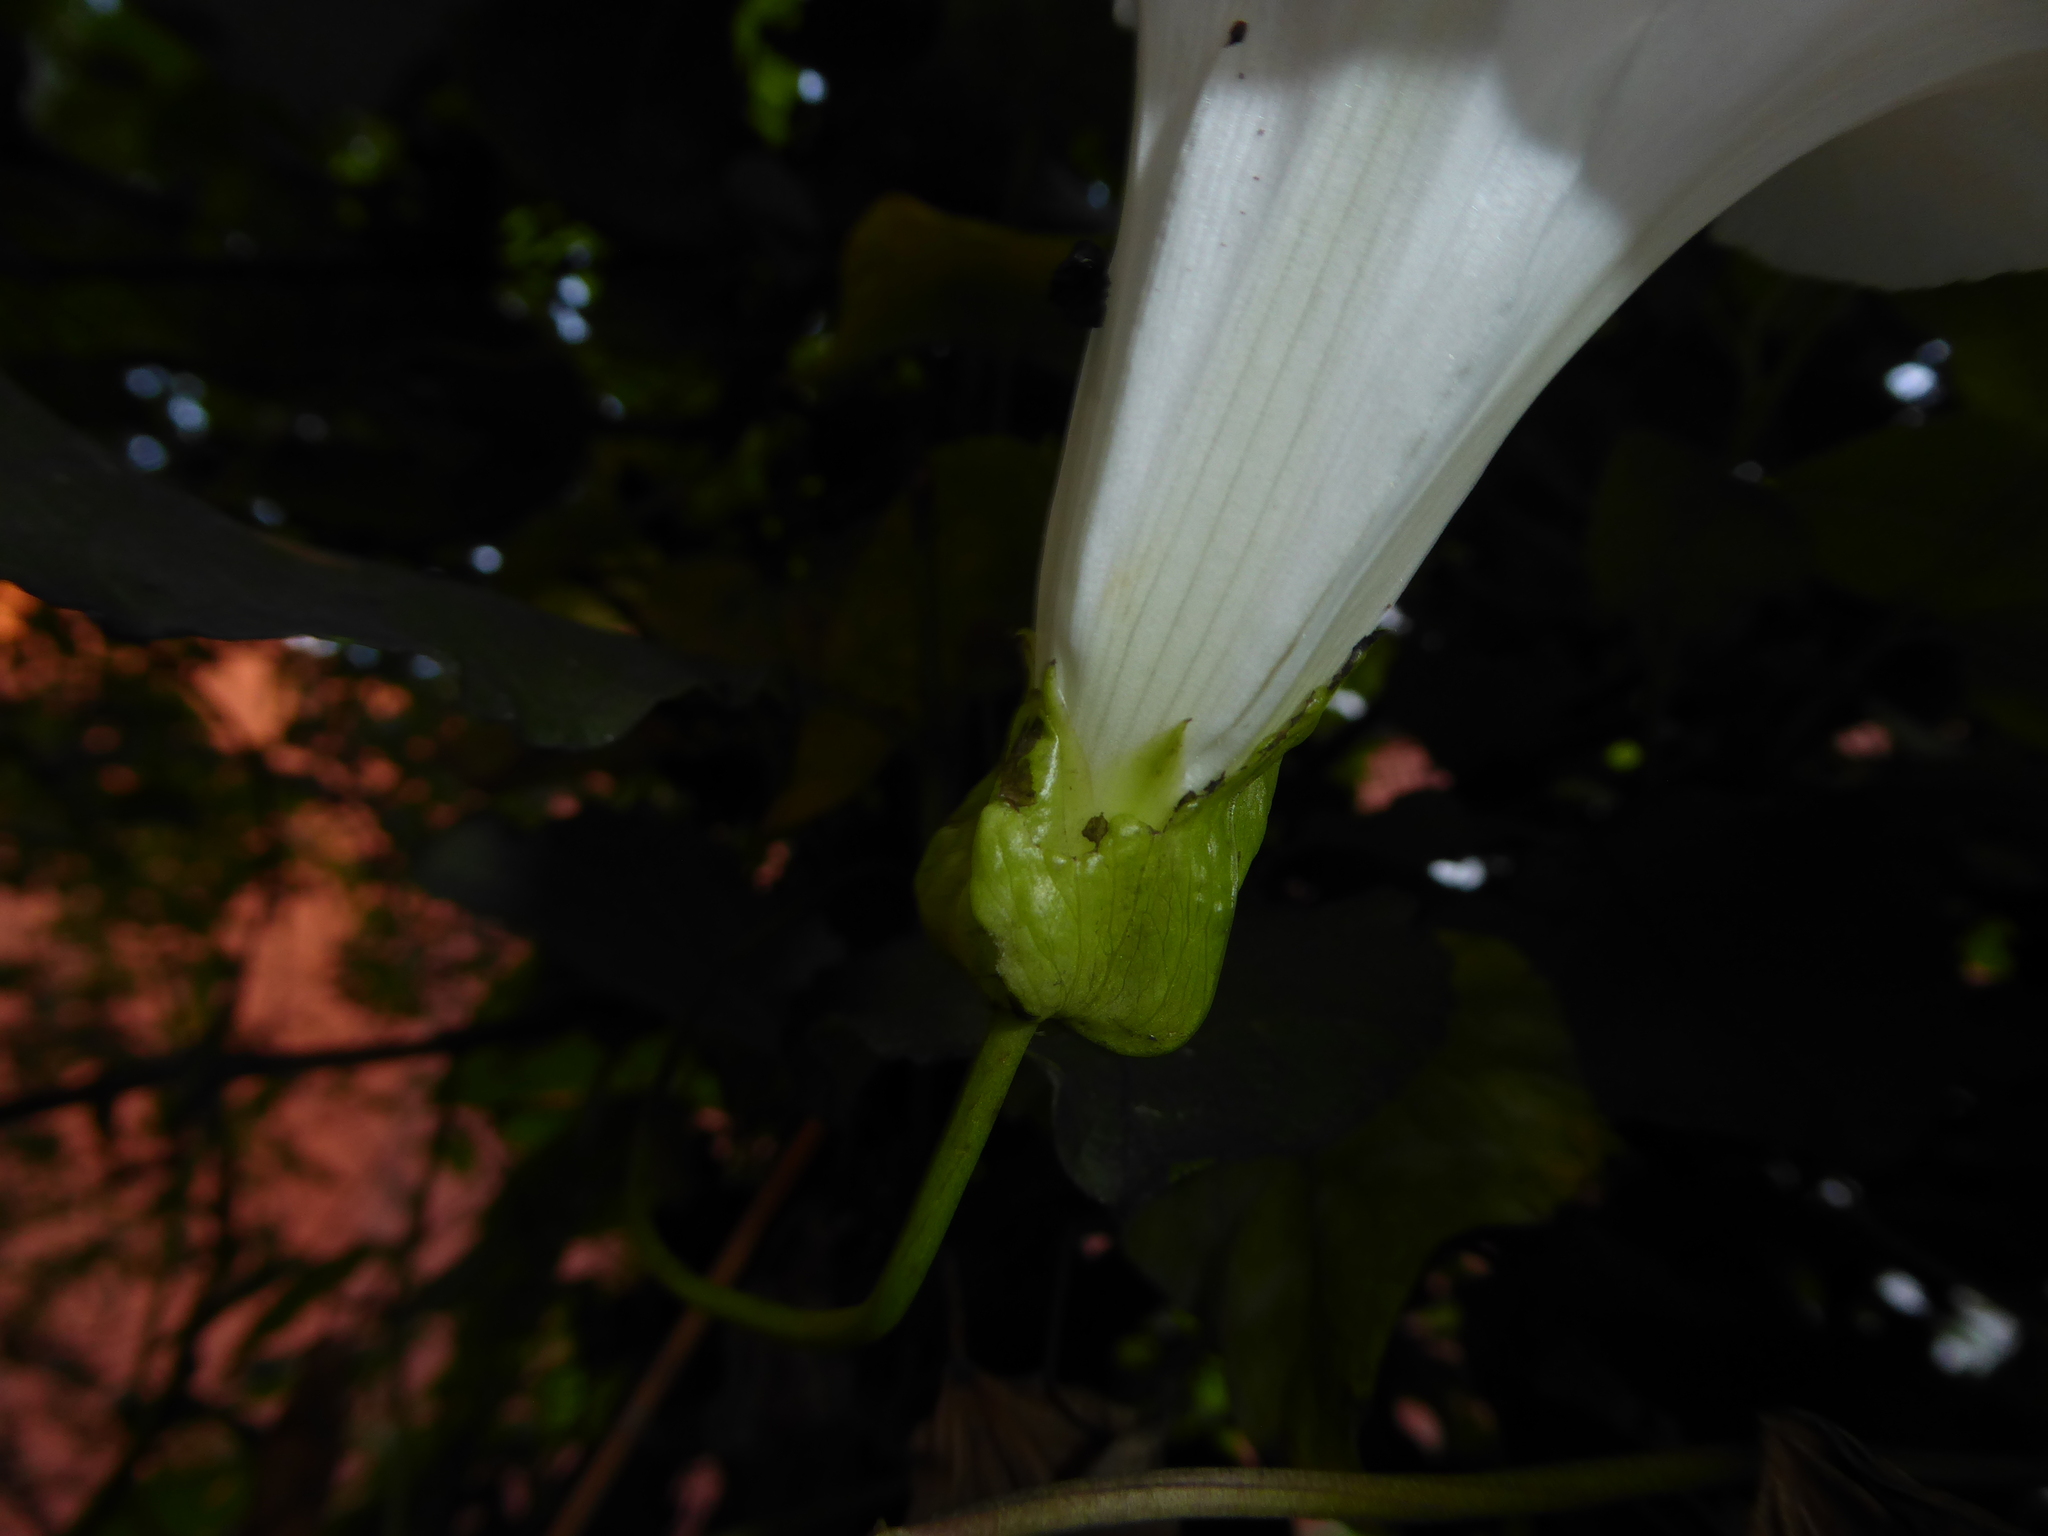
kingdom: Plantae
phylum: Tracheophyta
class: Magnoliopsida
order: Solanales
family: Convolvulaceae
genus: Calystegia
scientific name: Calystegia lucana
